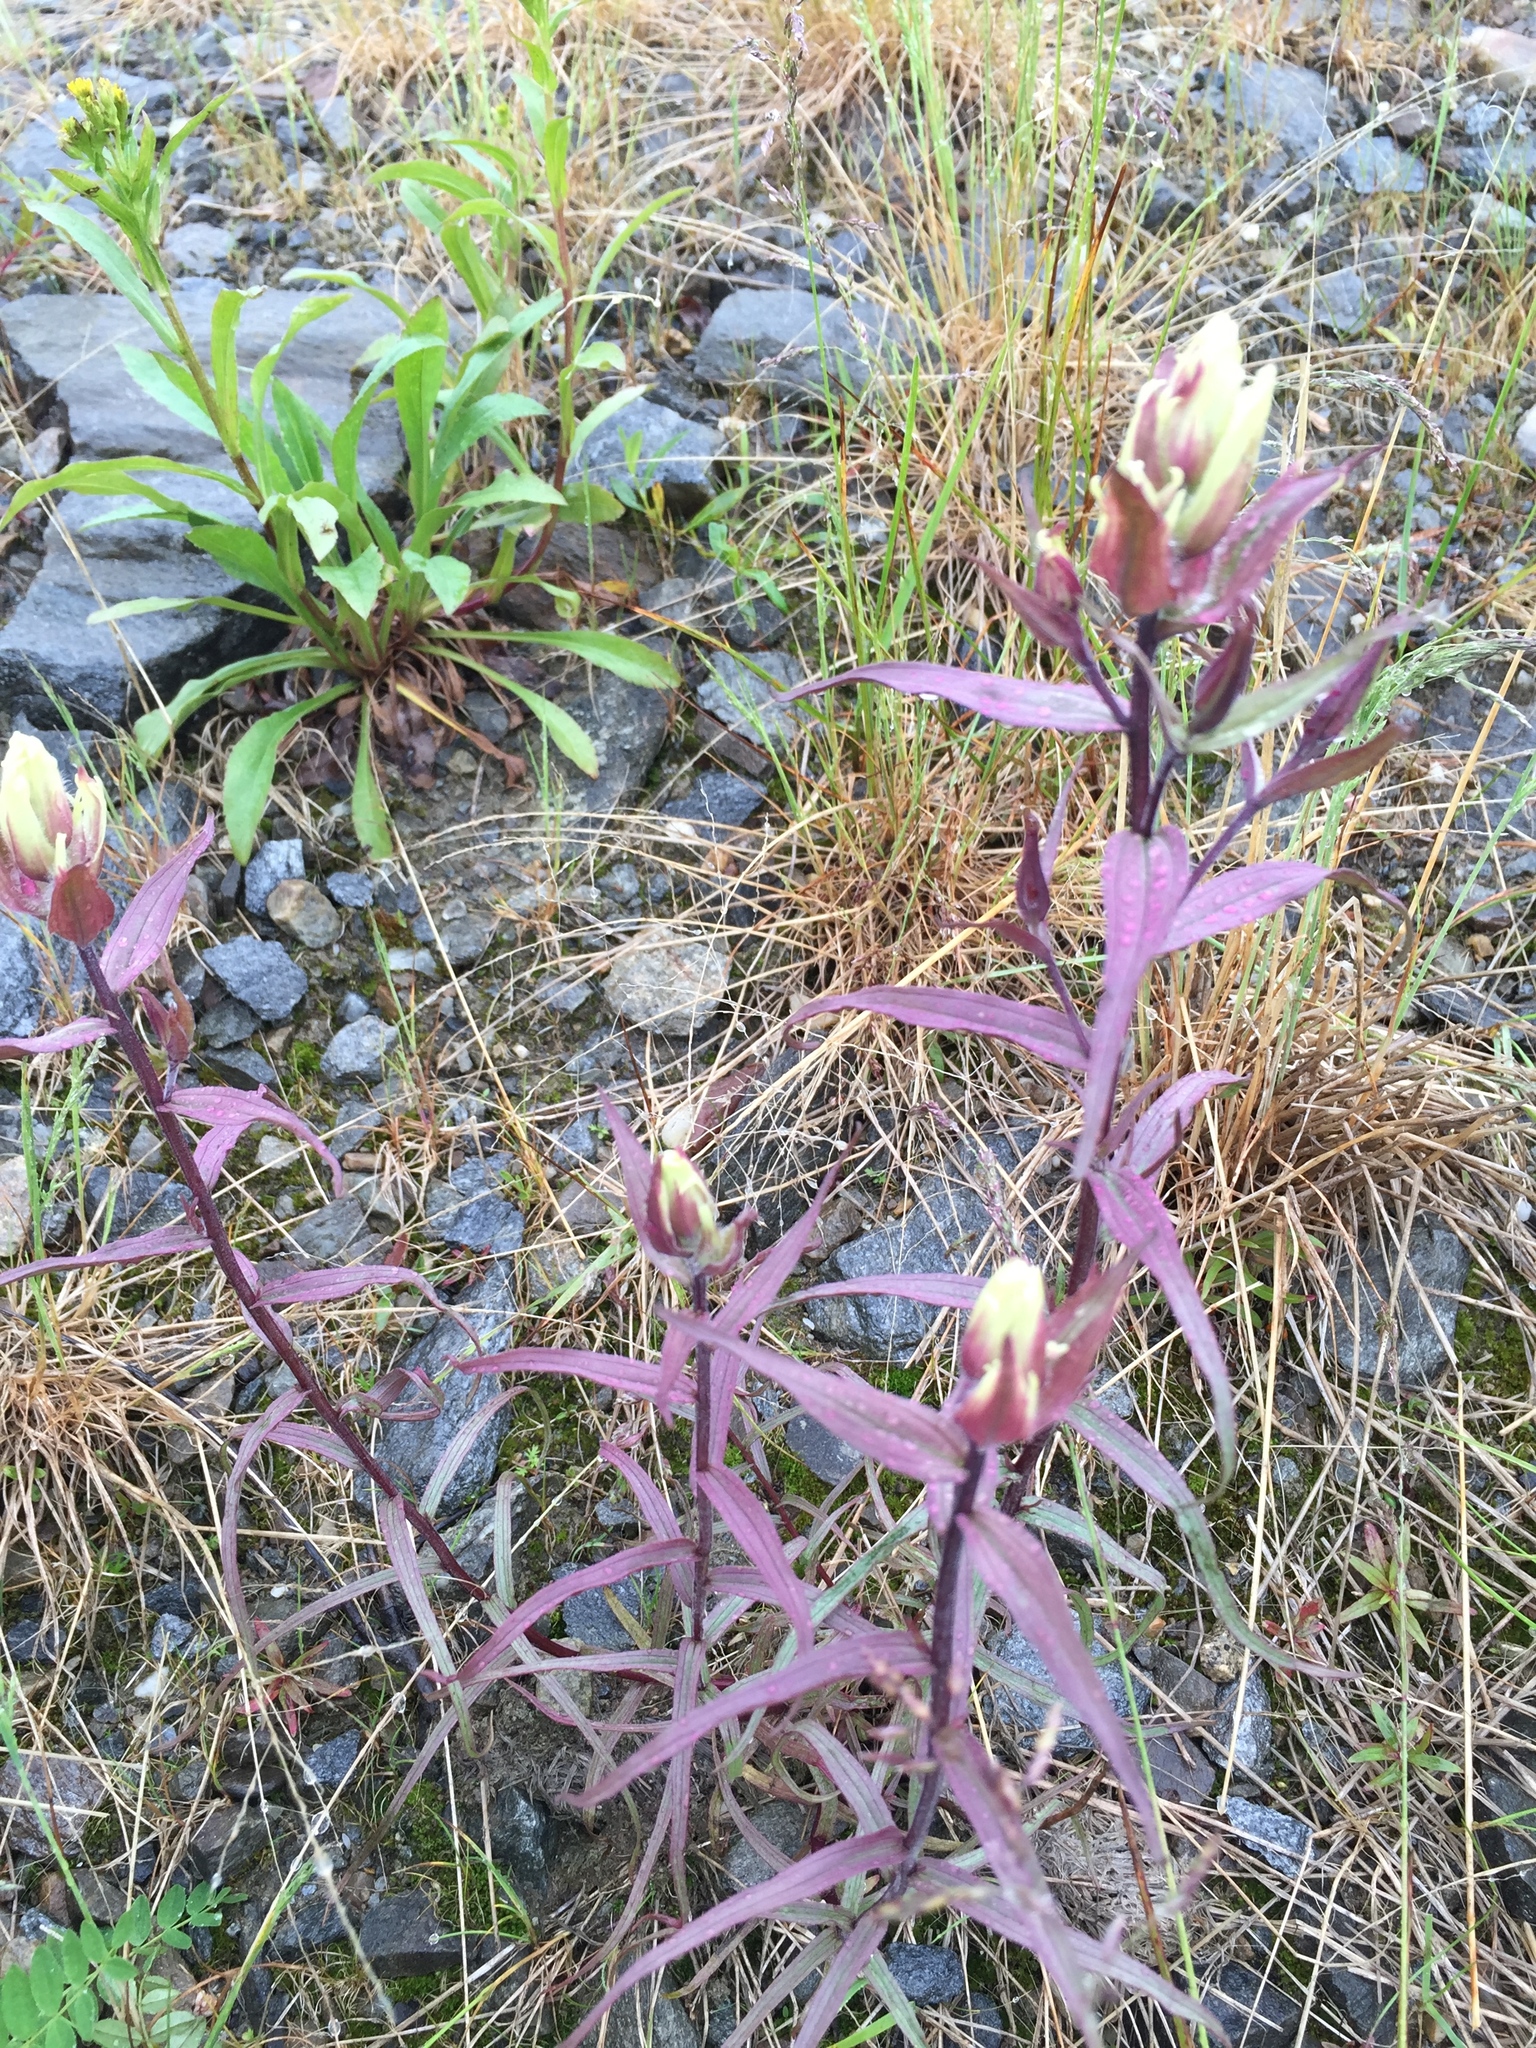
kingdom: Plantae
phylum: Tracheophyta
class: Magnoliopsida
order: Lamiales
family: Orobanchaceae
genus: Castilleja
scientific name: Castilleja pallida
